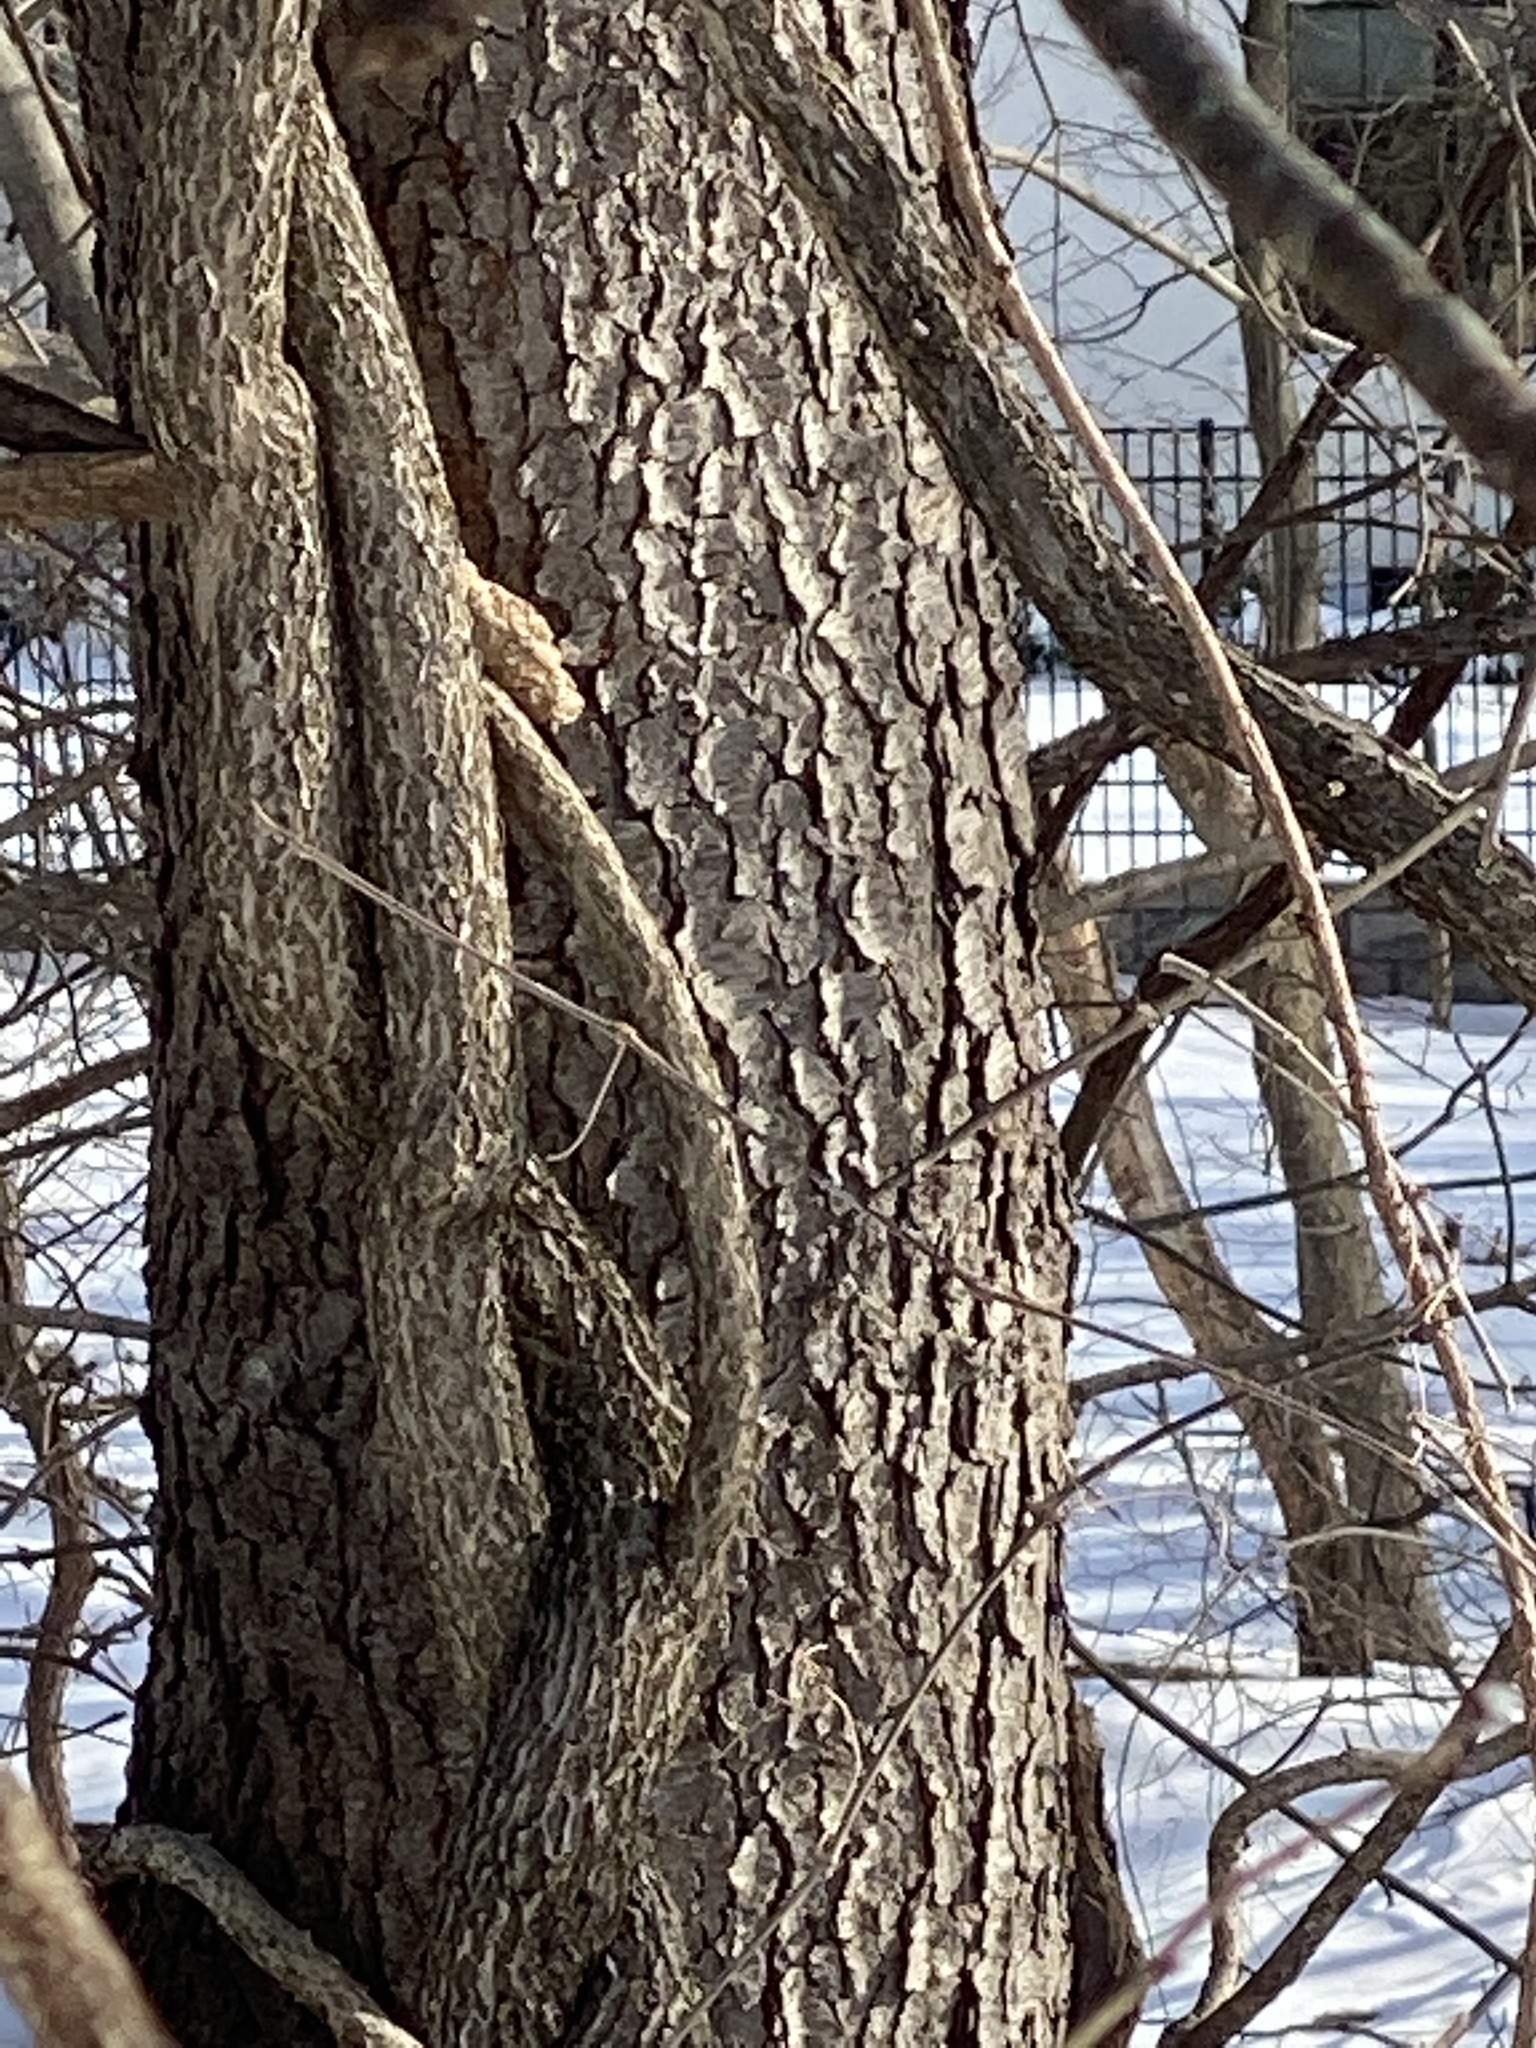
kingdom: Plantae
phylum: Tracheophyta
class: Magnoliopsida
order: Rosales
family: Rosaceae
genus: Prunus
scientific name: Prunus serotina
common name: Black cherry
